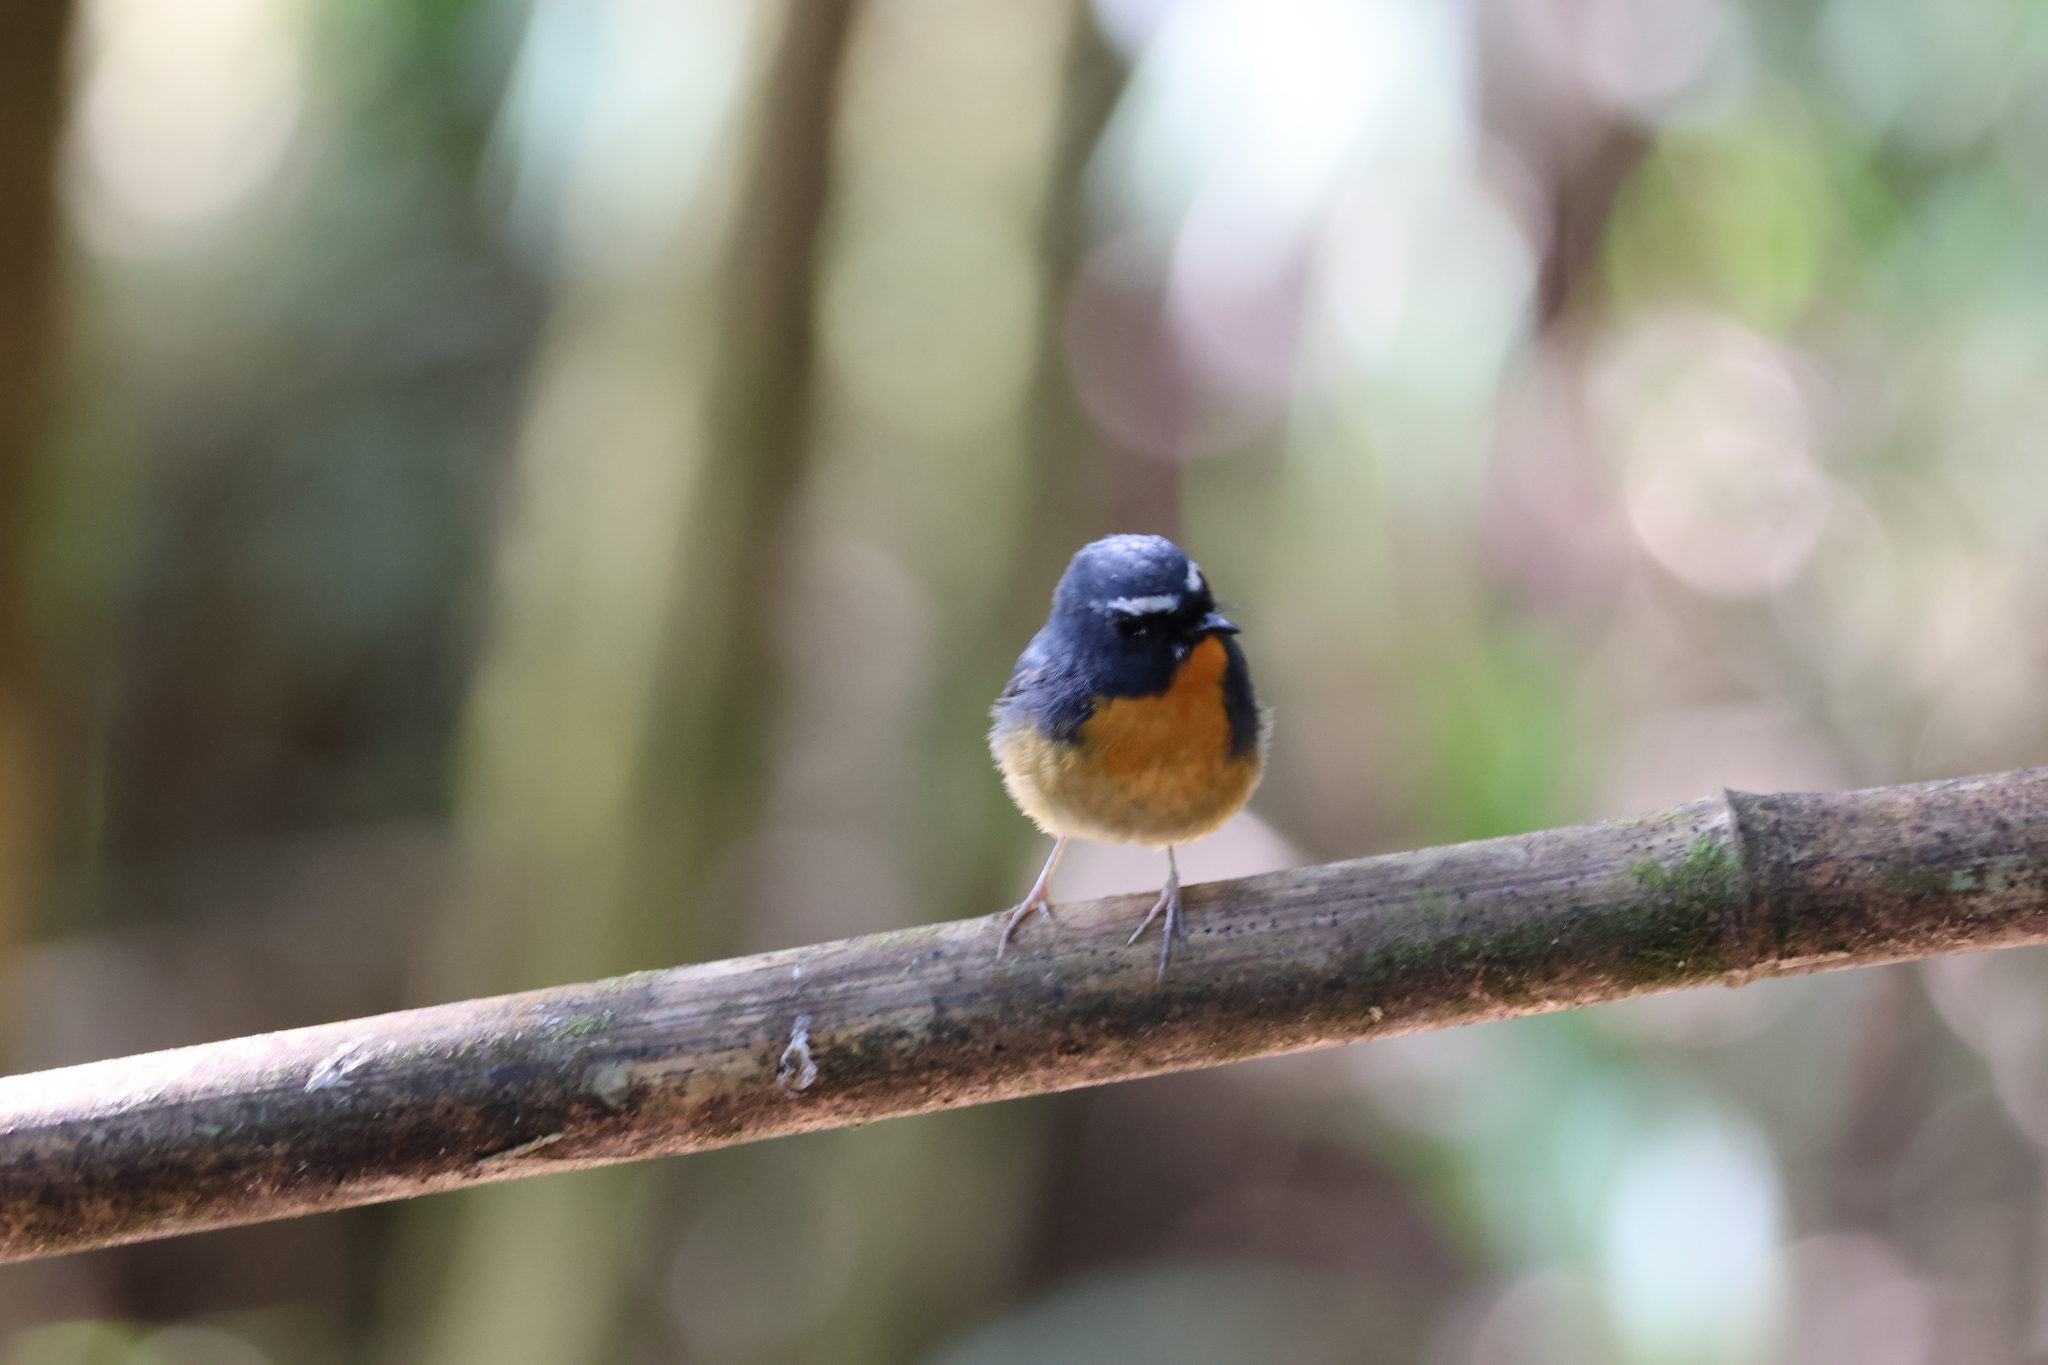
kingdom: Animalia
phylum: Chordata
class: Aves
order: Passeriformes
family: Muscicapidae
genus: Ficedula
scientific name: Ficedula hyperythra
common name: Snowy-browed flycatcher
